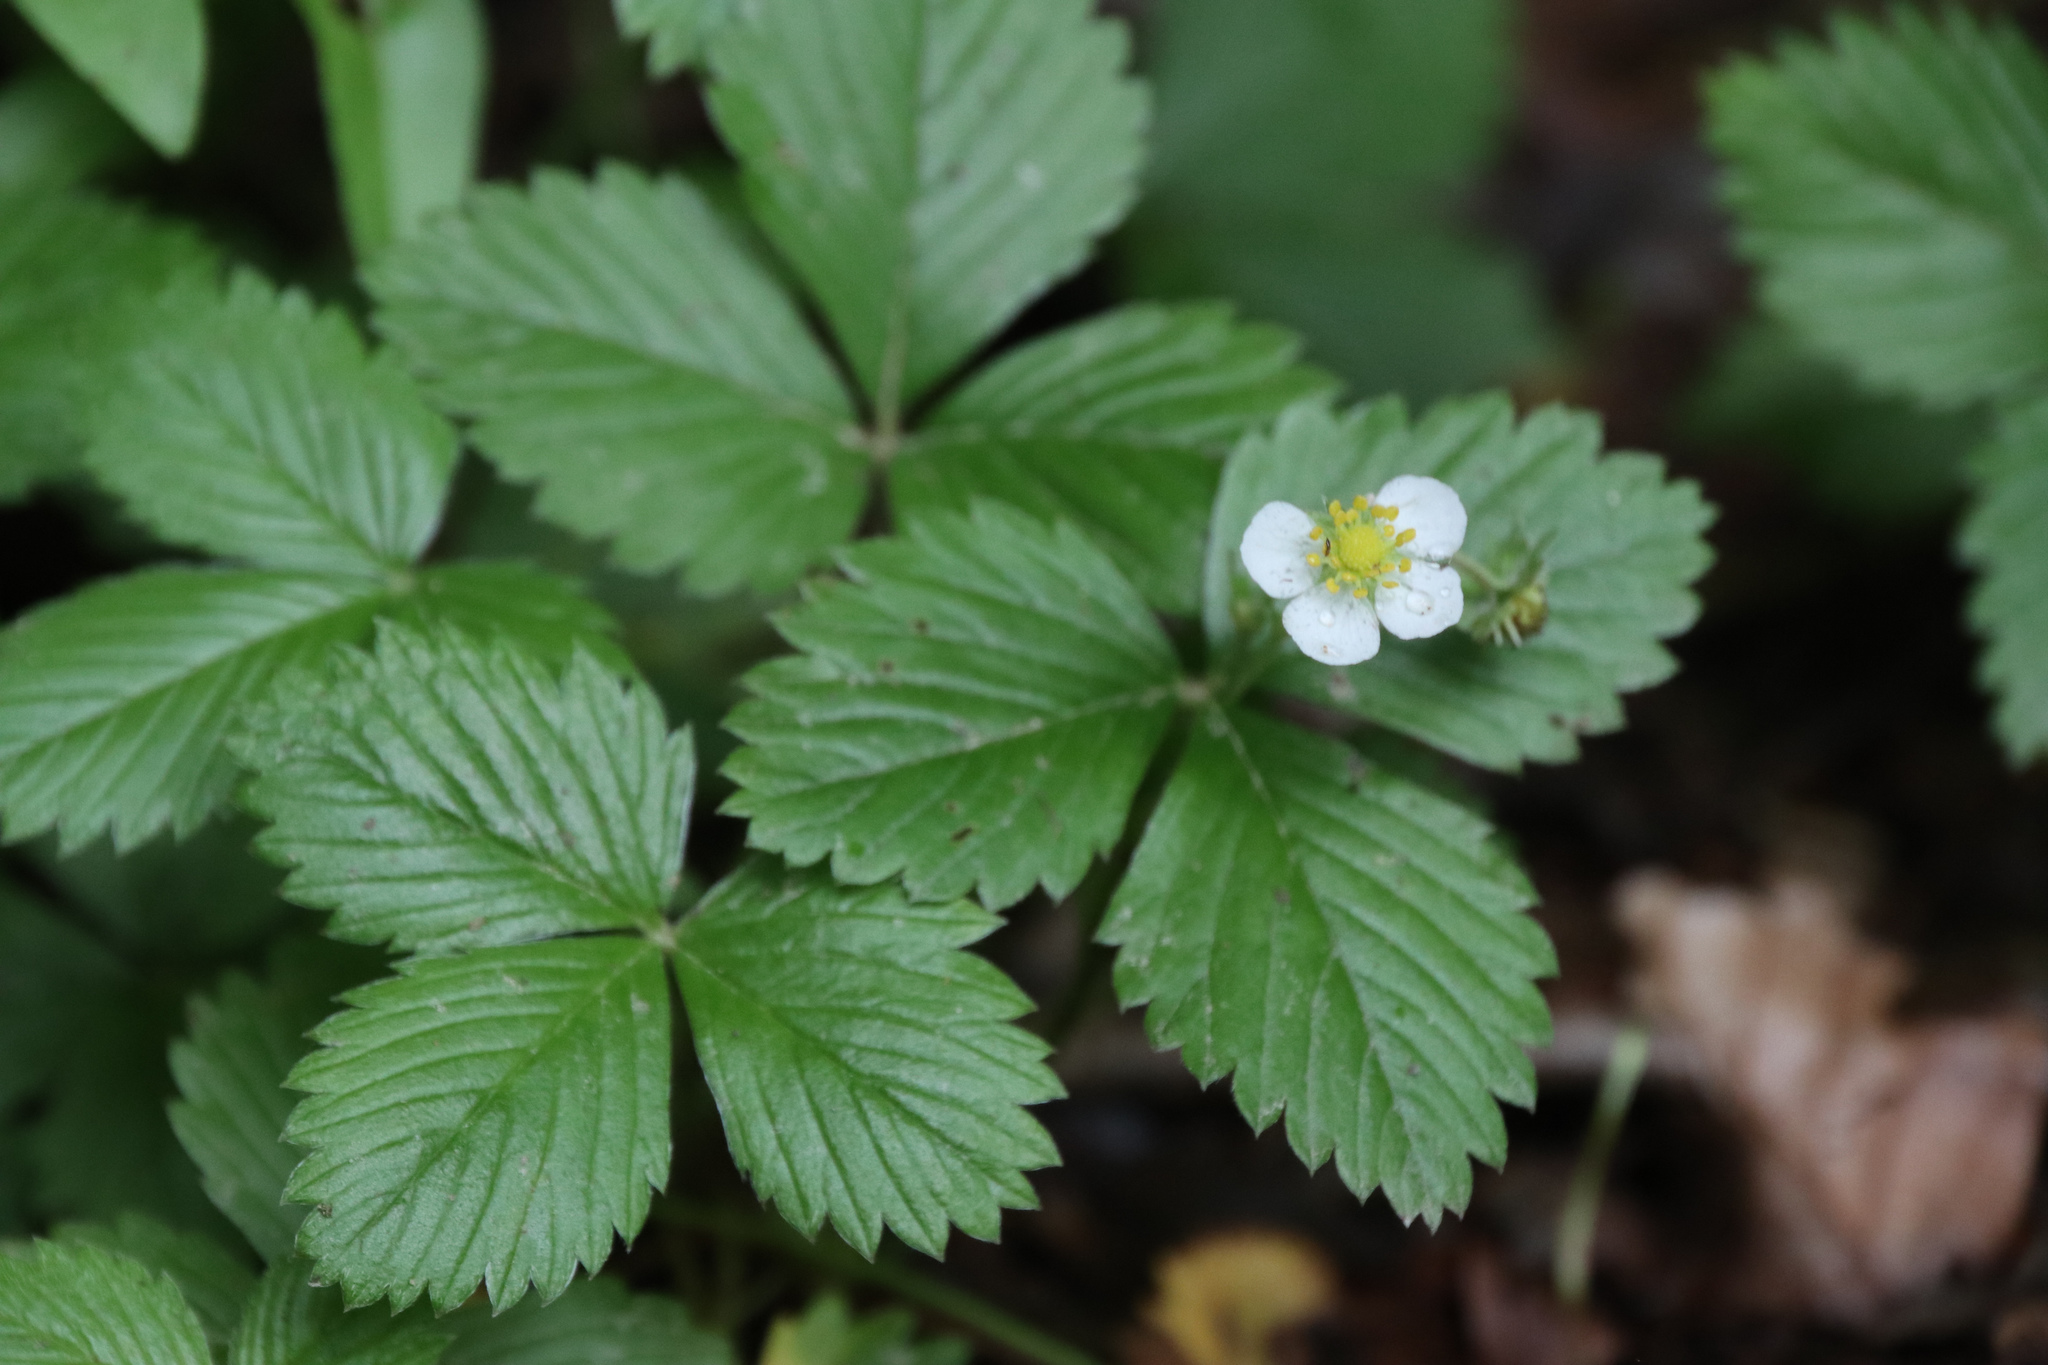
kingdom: Plantae
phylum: Tracheophyta
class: Magnoliopsida
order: Rosales
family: Rosaceae
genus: Fragaria
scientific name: Fragaria vesca
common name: Wild strawberry
